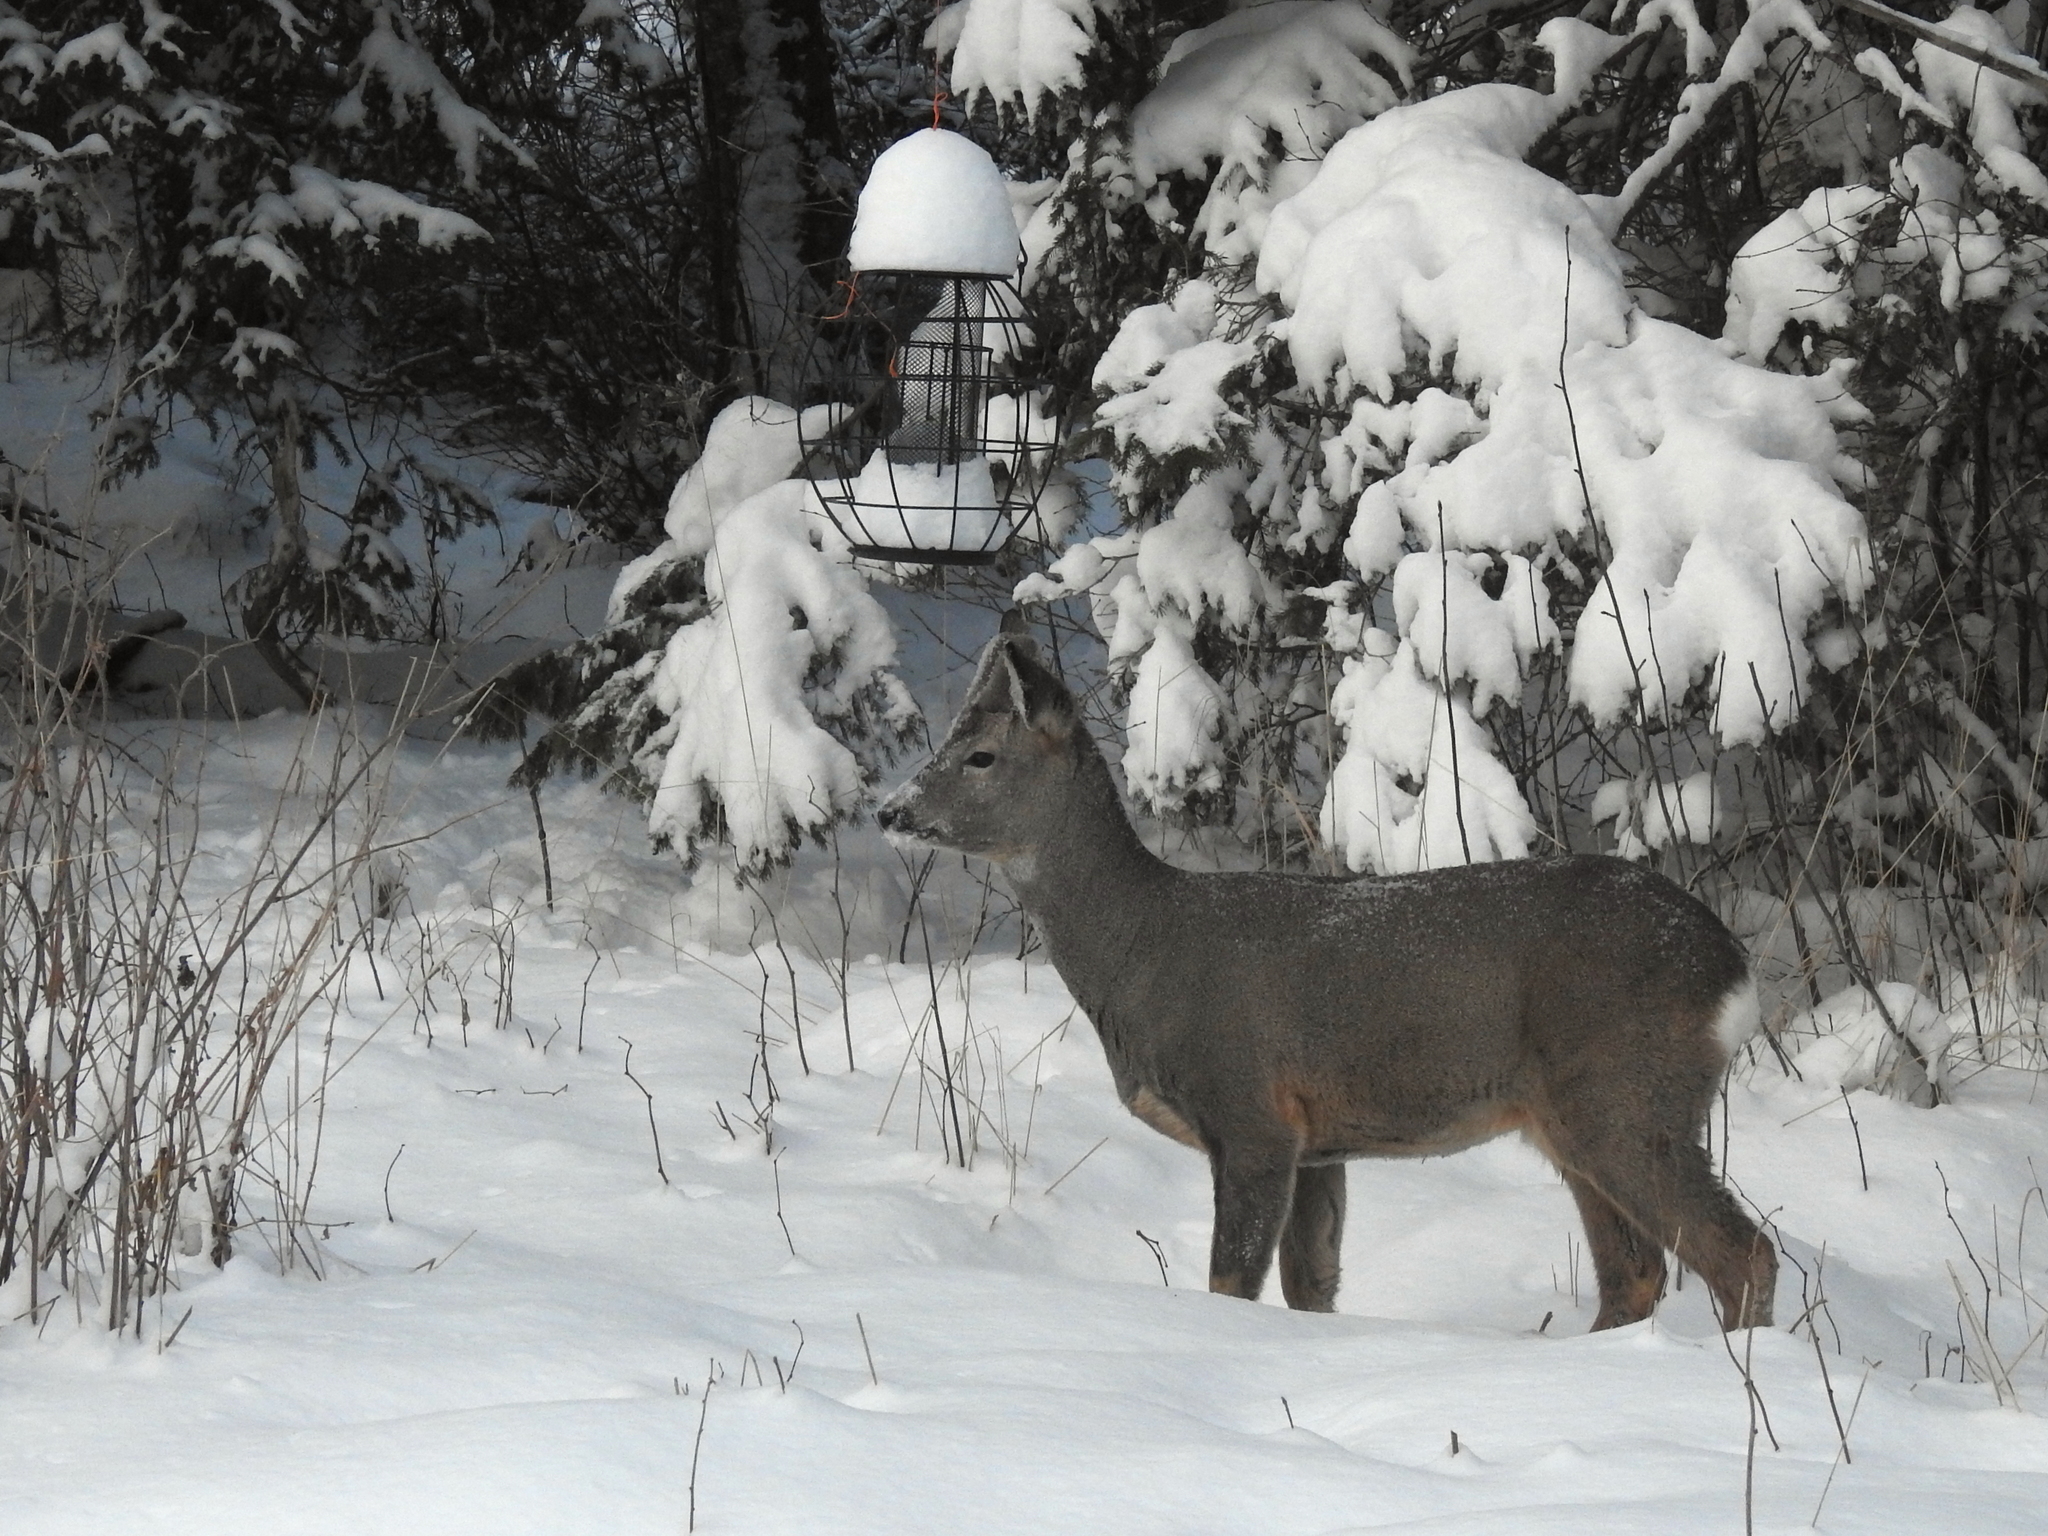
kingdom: Animalia
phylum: Chordata
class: Mammalia
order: Artiodactyla
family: Cervidae
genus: Capreolus
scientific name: Capreolus capreolus
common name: Western roe deer
